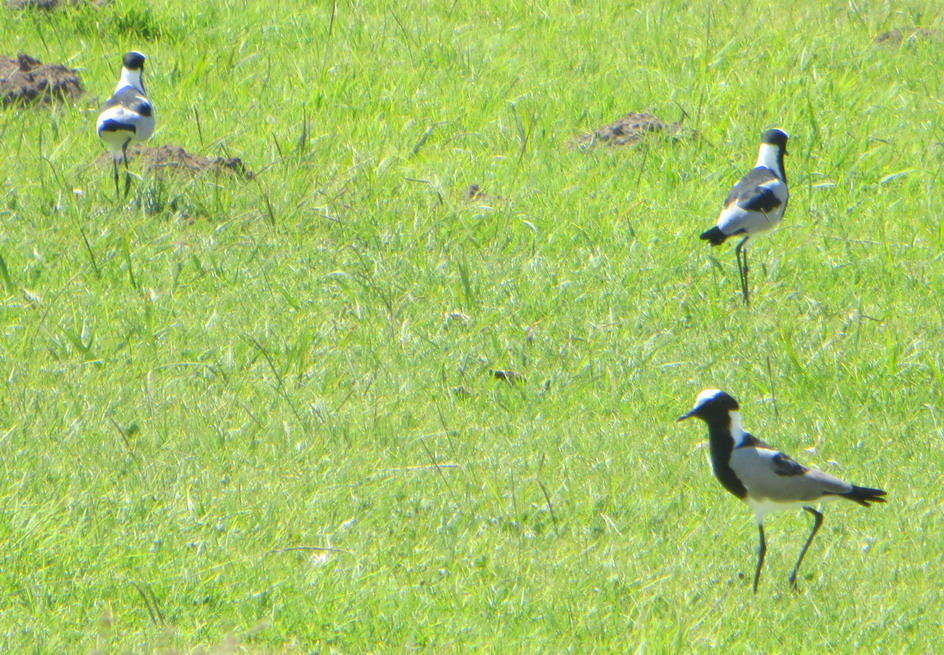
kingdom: Animalia
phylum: Chordata
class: Aves
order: Charadriiformes
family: Charadriidae
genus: Vanellus
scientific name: Vanellus armatus
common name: Blacksmith lapwing
